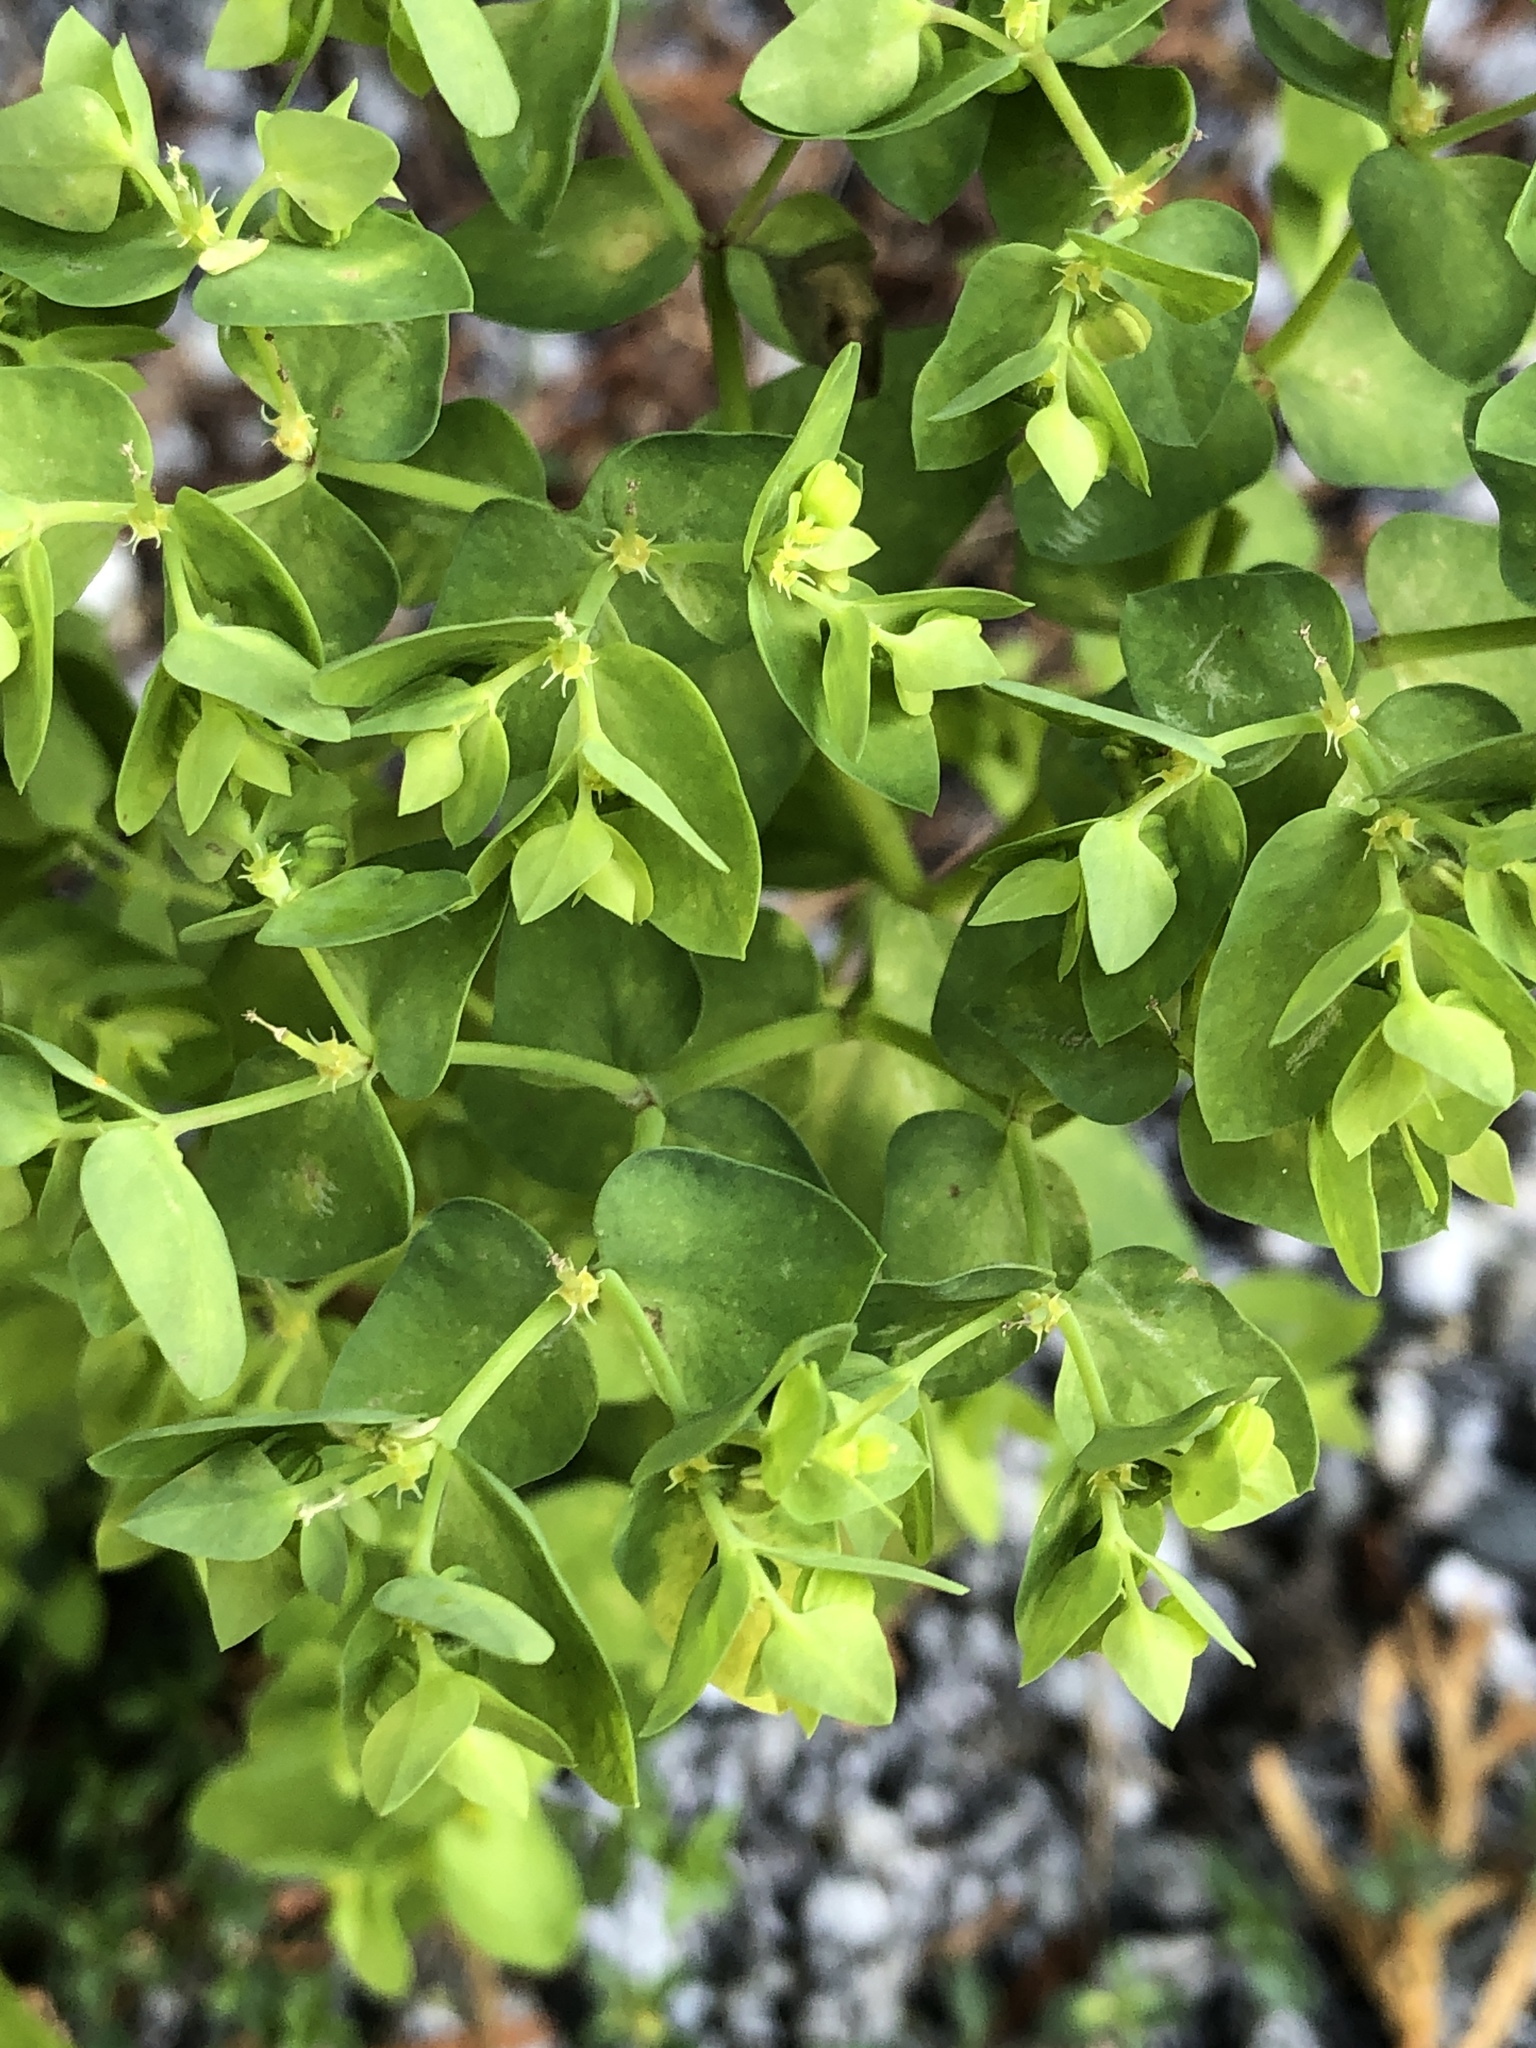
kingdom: Plantae
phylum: Tracheophyta
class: Magnoliopsida
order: Malpighiales
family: Euphorbiaceae
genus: Euphorbia
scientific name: Euphorbia peplus
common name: Petty spurge
